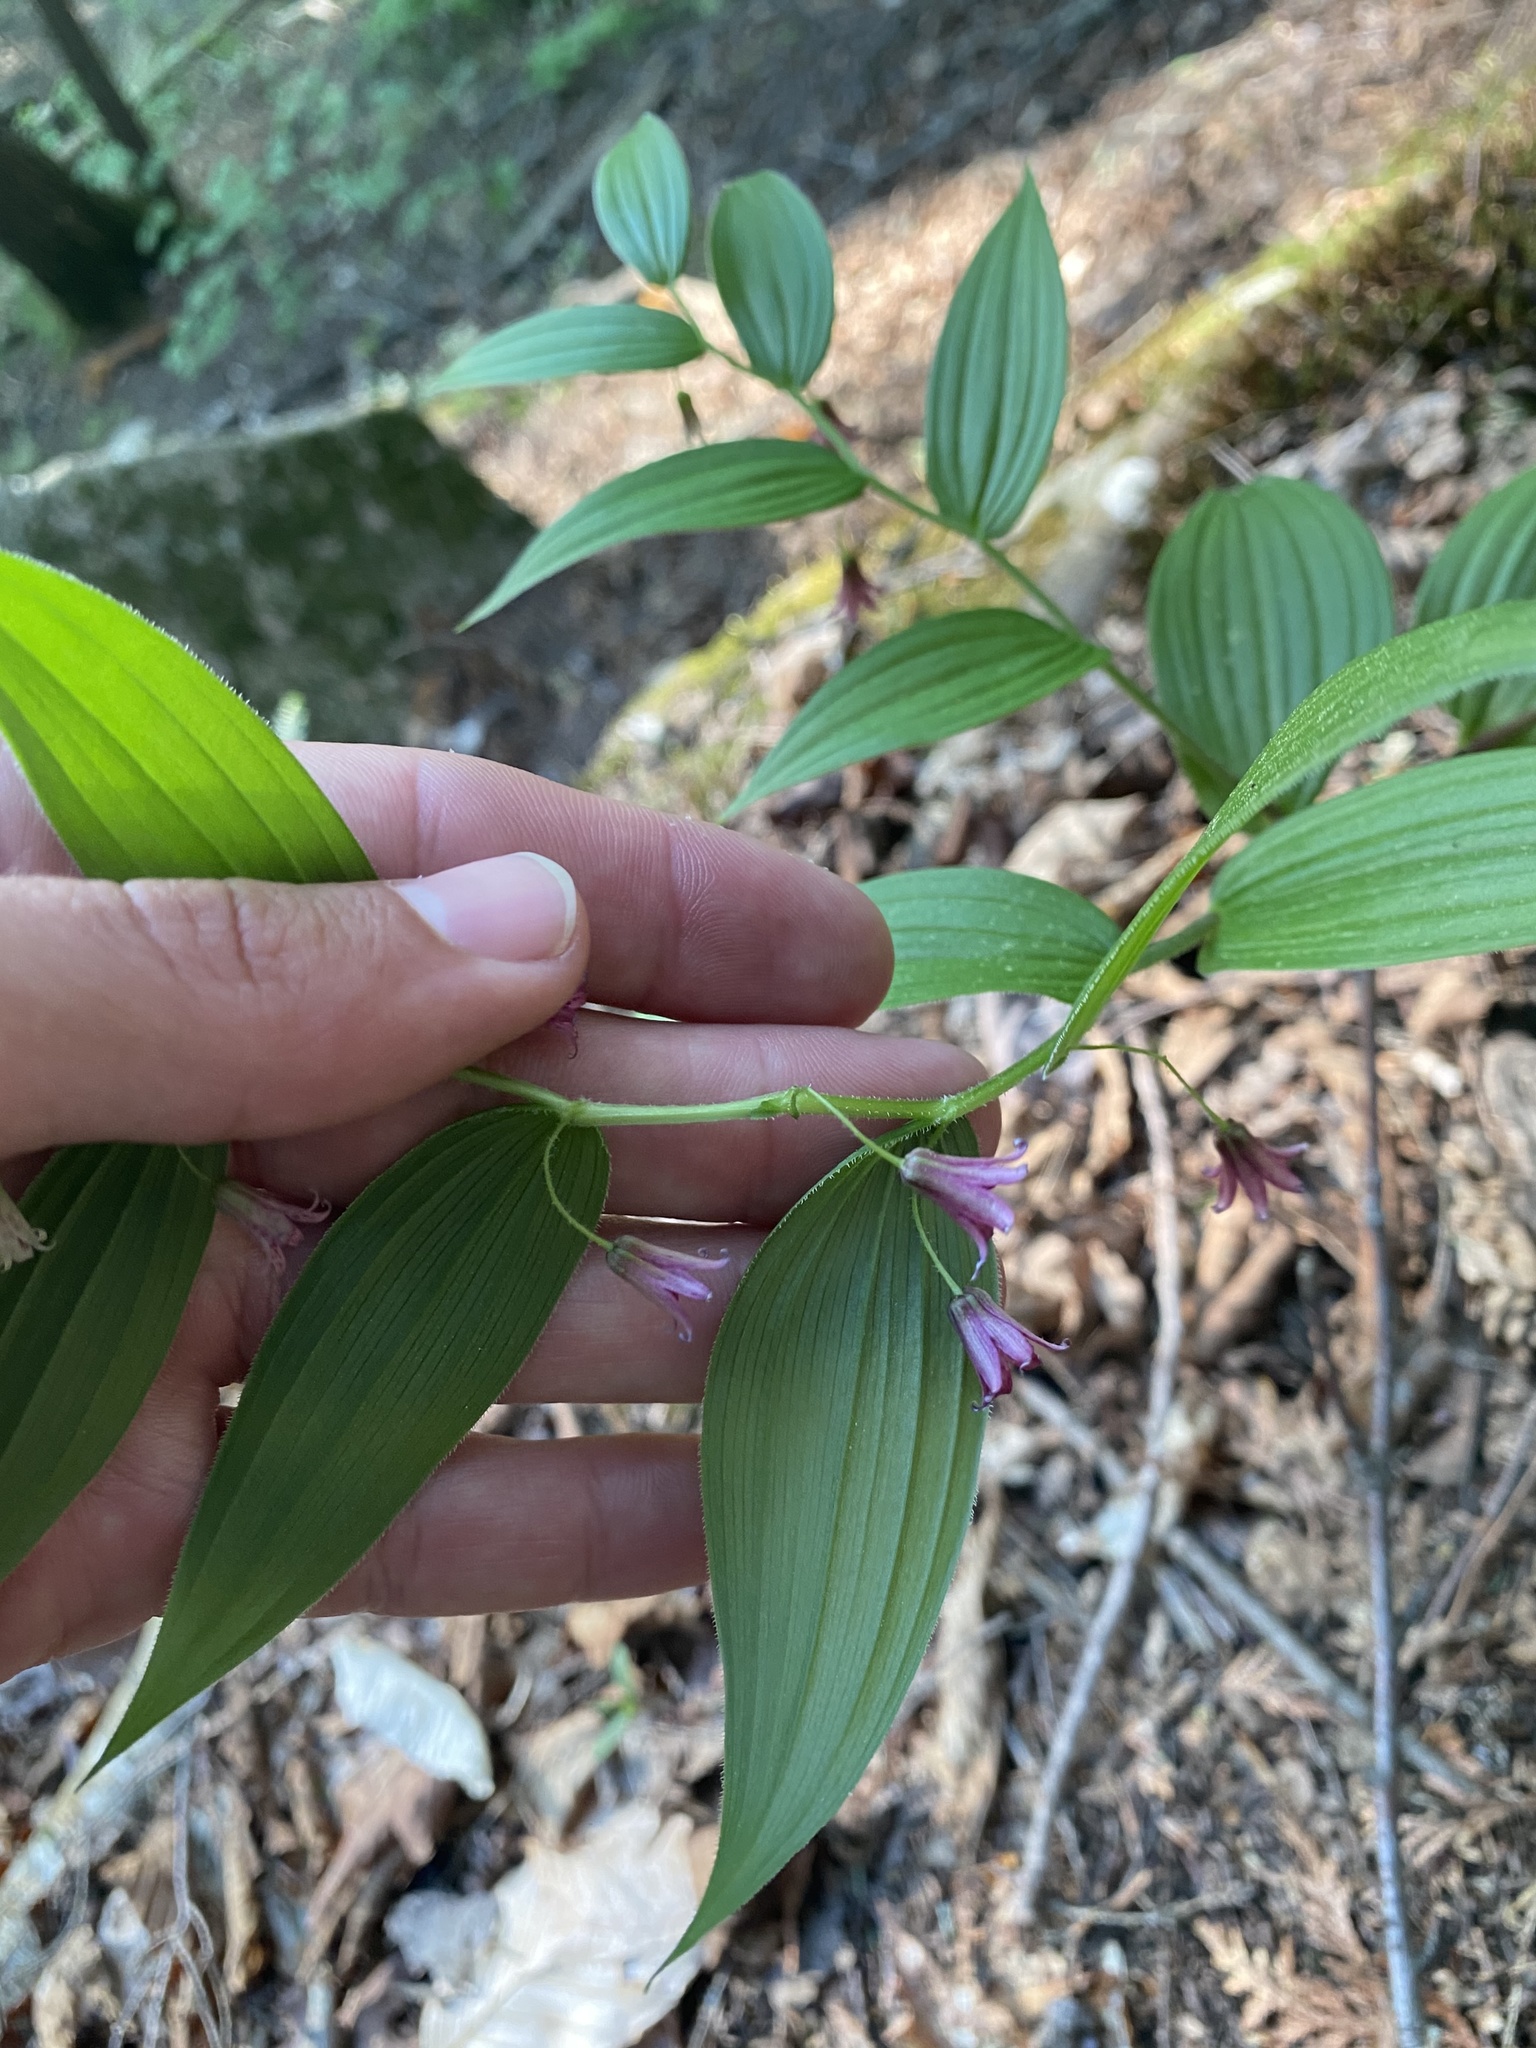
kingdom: Plantae
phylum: Tracheophyta
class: Liliopsida
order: Liliales
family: Liliaceae
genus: Streptopus
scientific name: Streptopus lanceolatus
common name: Rose mandarin
